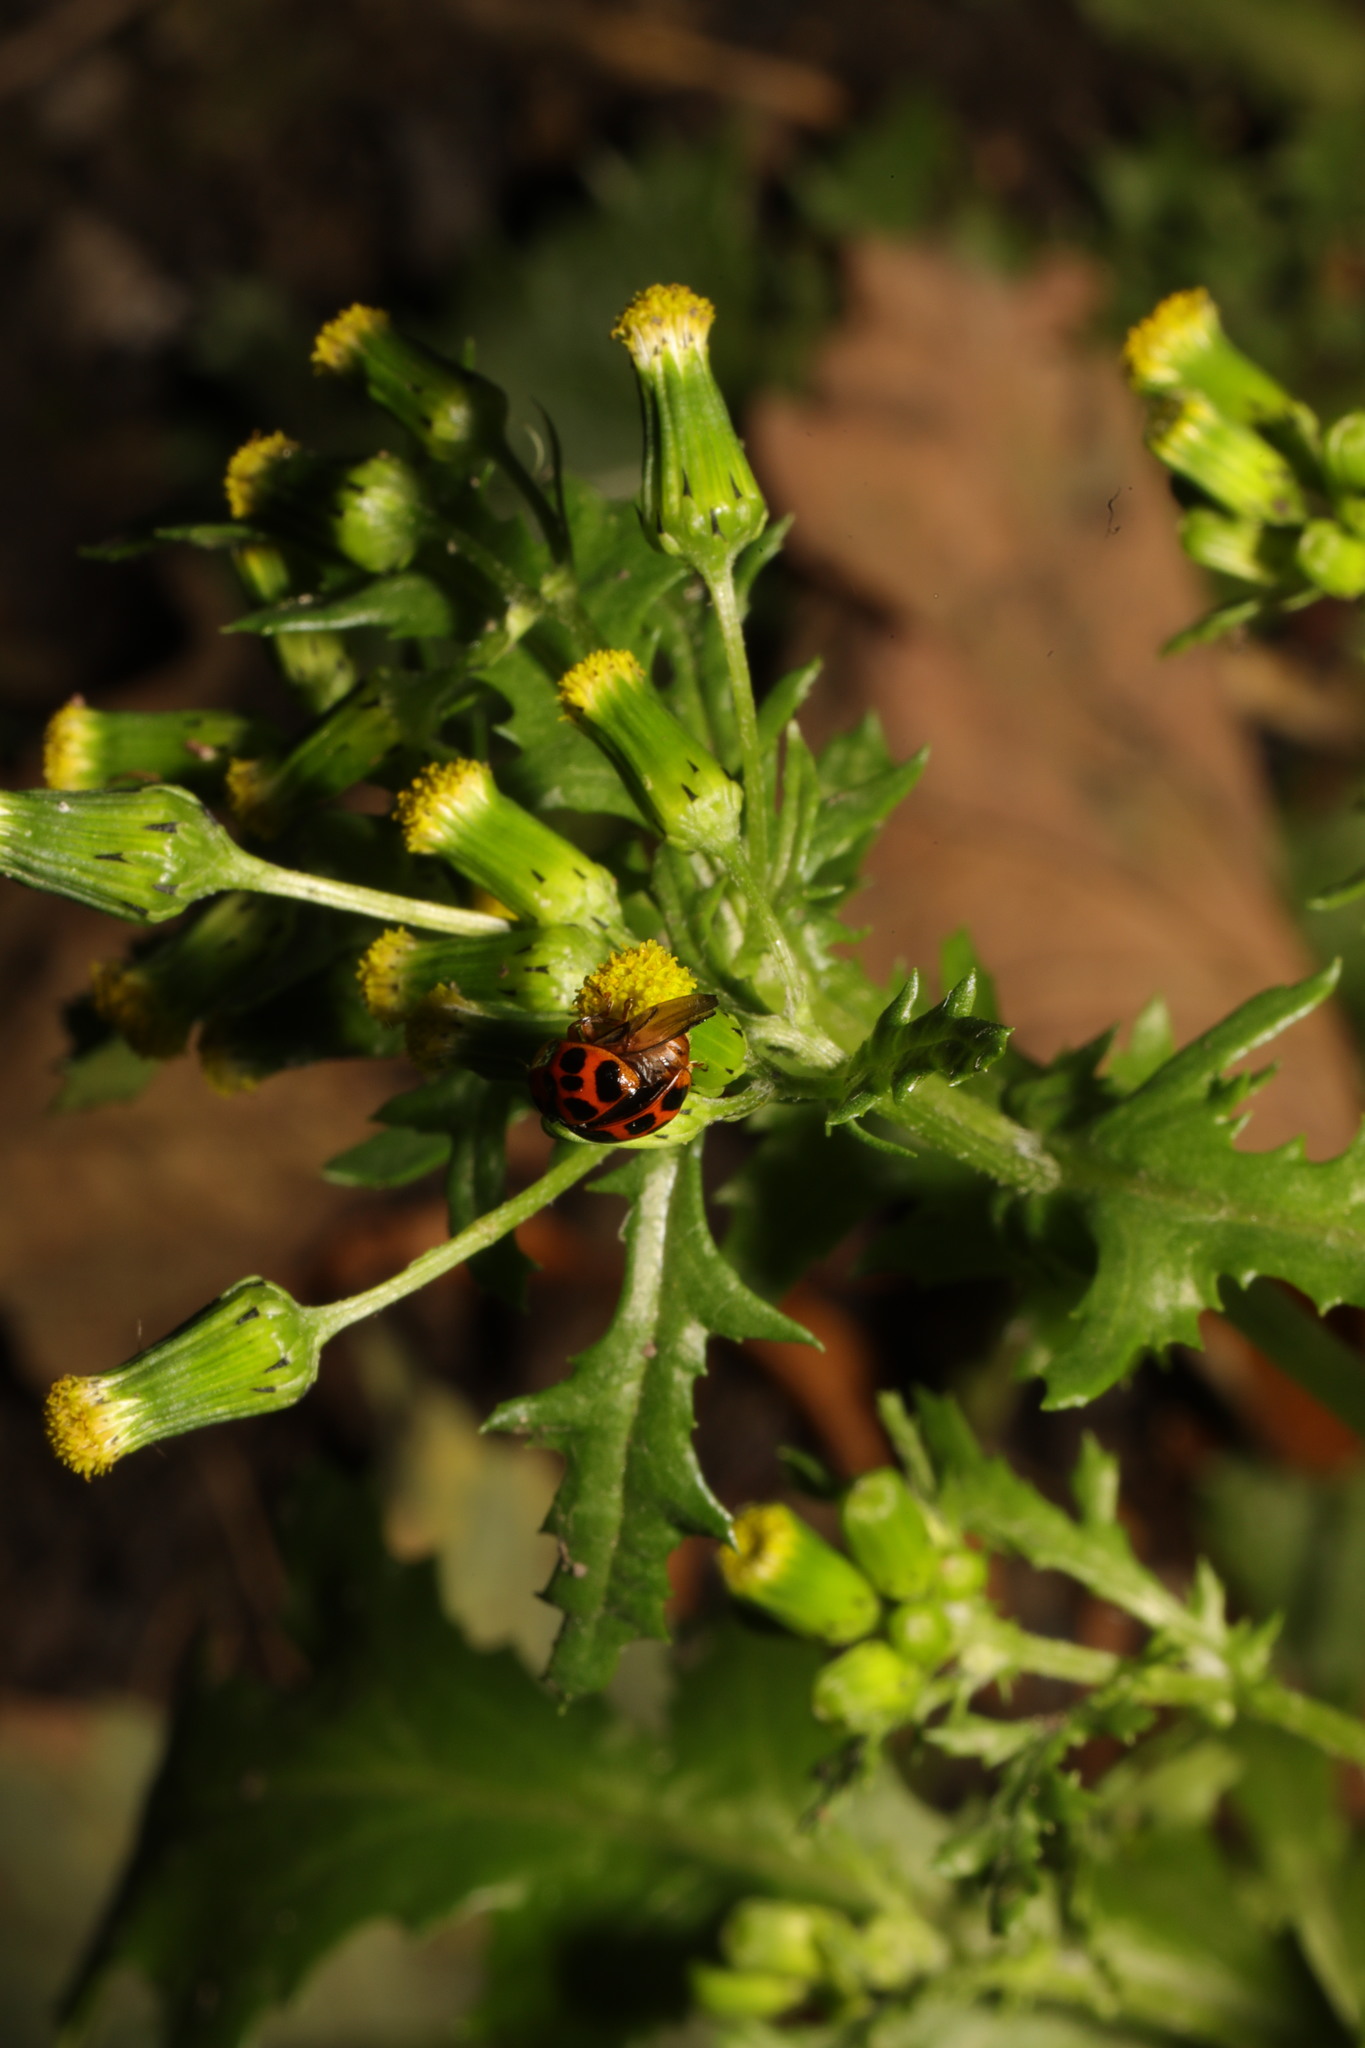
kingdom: Animalia
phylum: Arthropoda
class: Insecta
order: Coleoptera
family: Coccinellidae
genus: Harmonia
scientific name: Harmonia axyridis
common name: Harlequin ladybird
